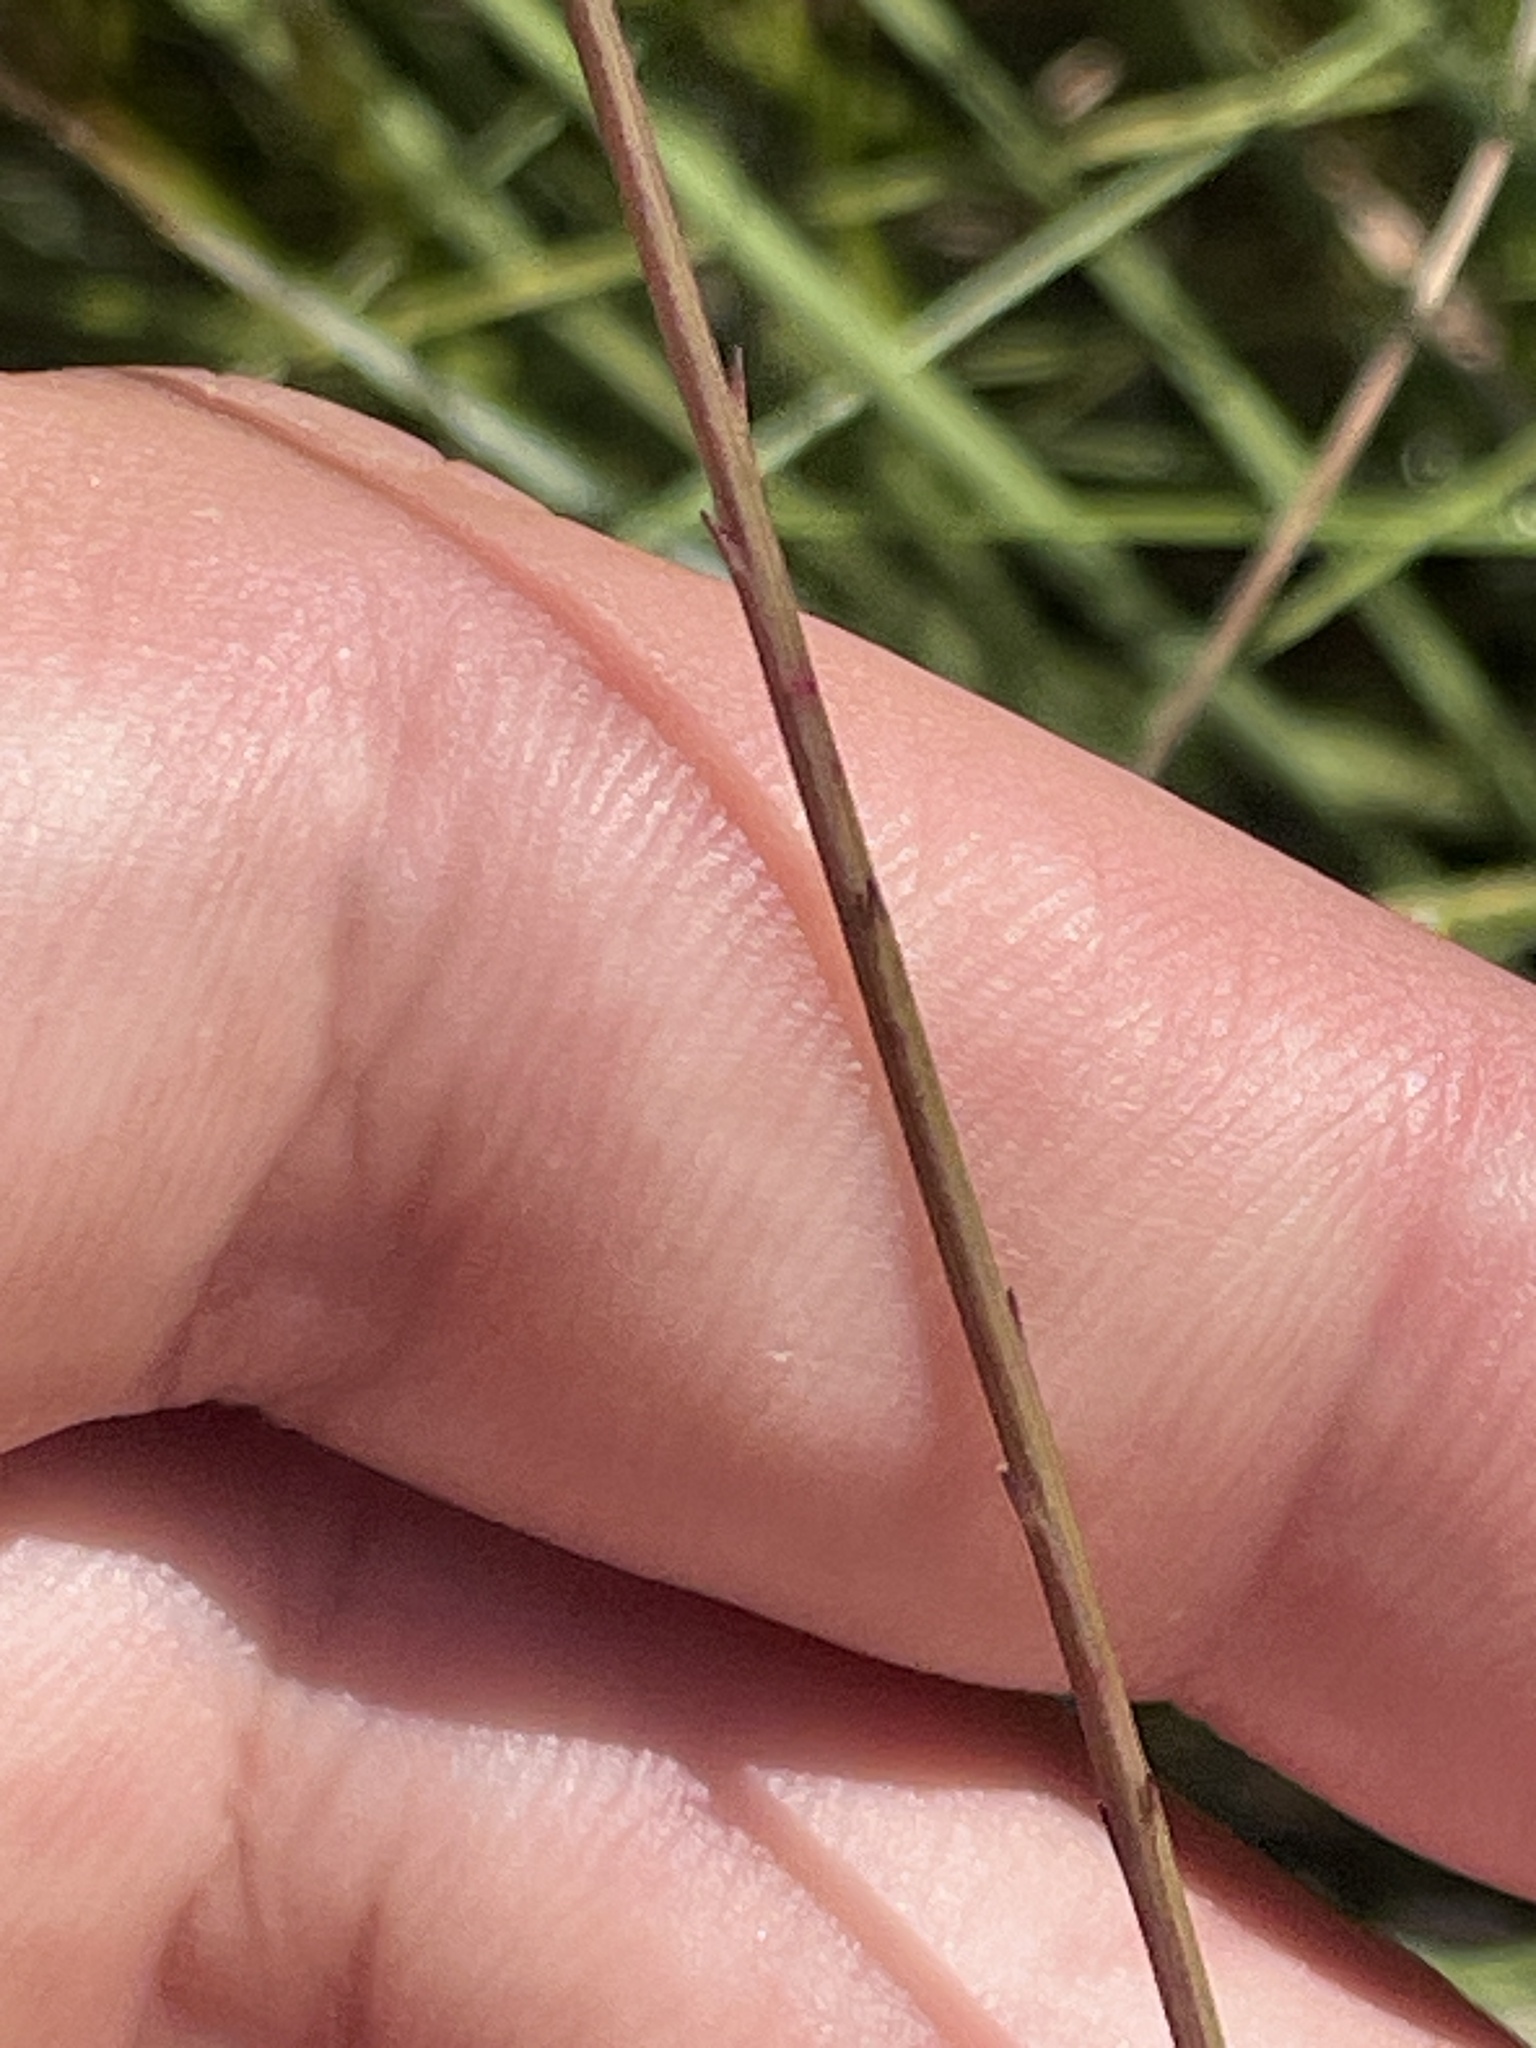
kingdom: Plantae
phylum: Tracheophyta
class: Magnoliopsida
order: Lamiales
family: Orobanchaceae
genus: Agalinis
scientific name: Agalinis aphylla
